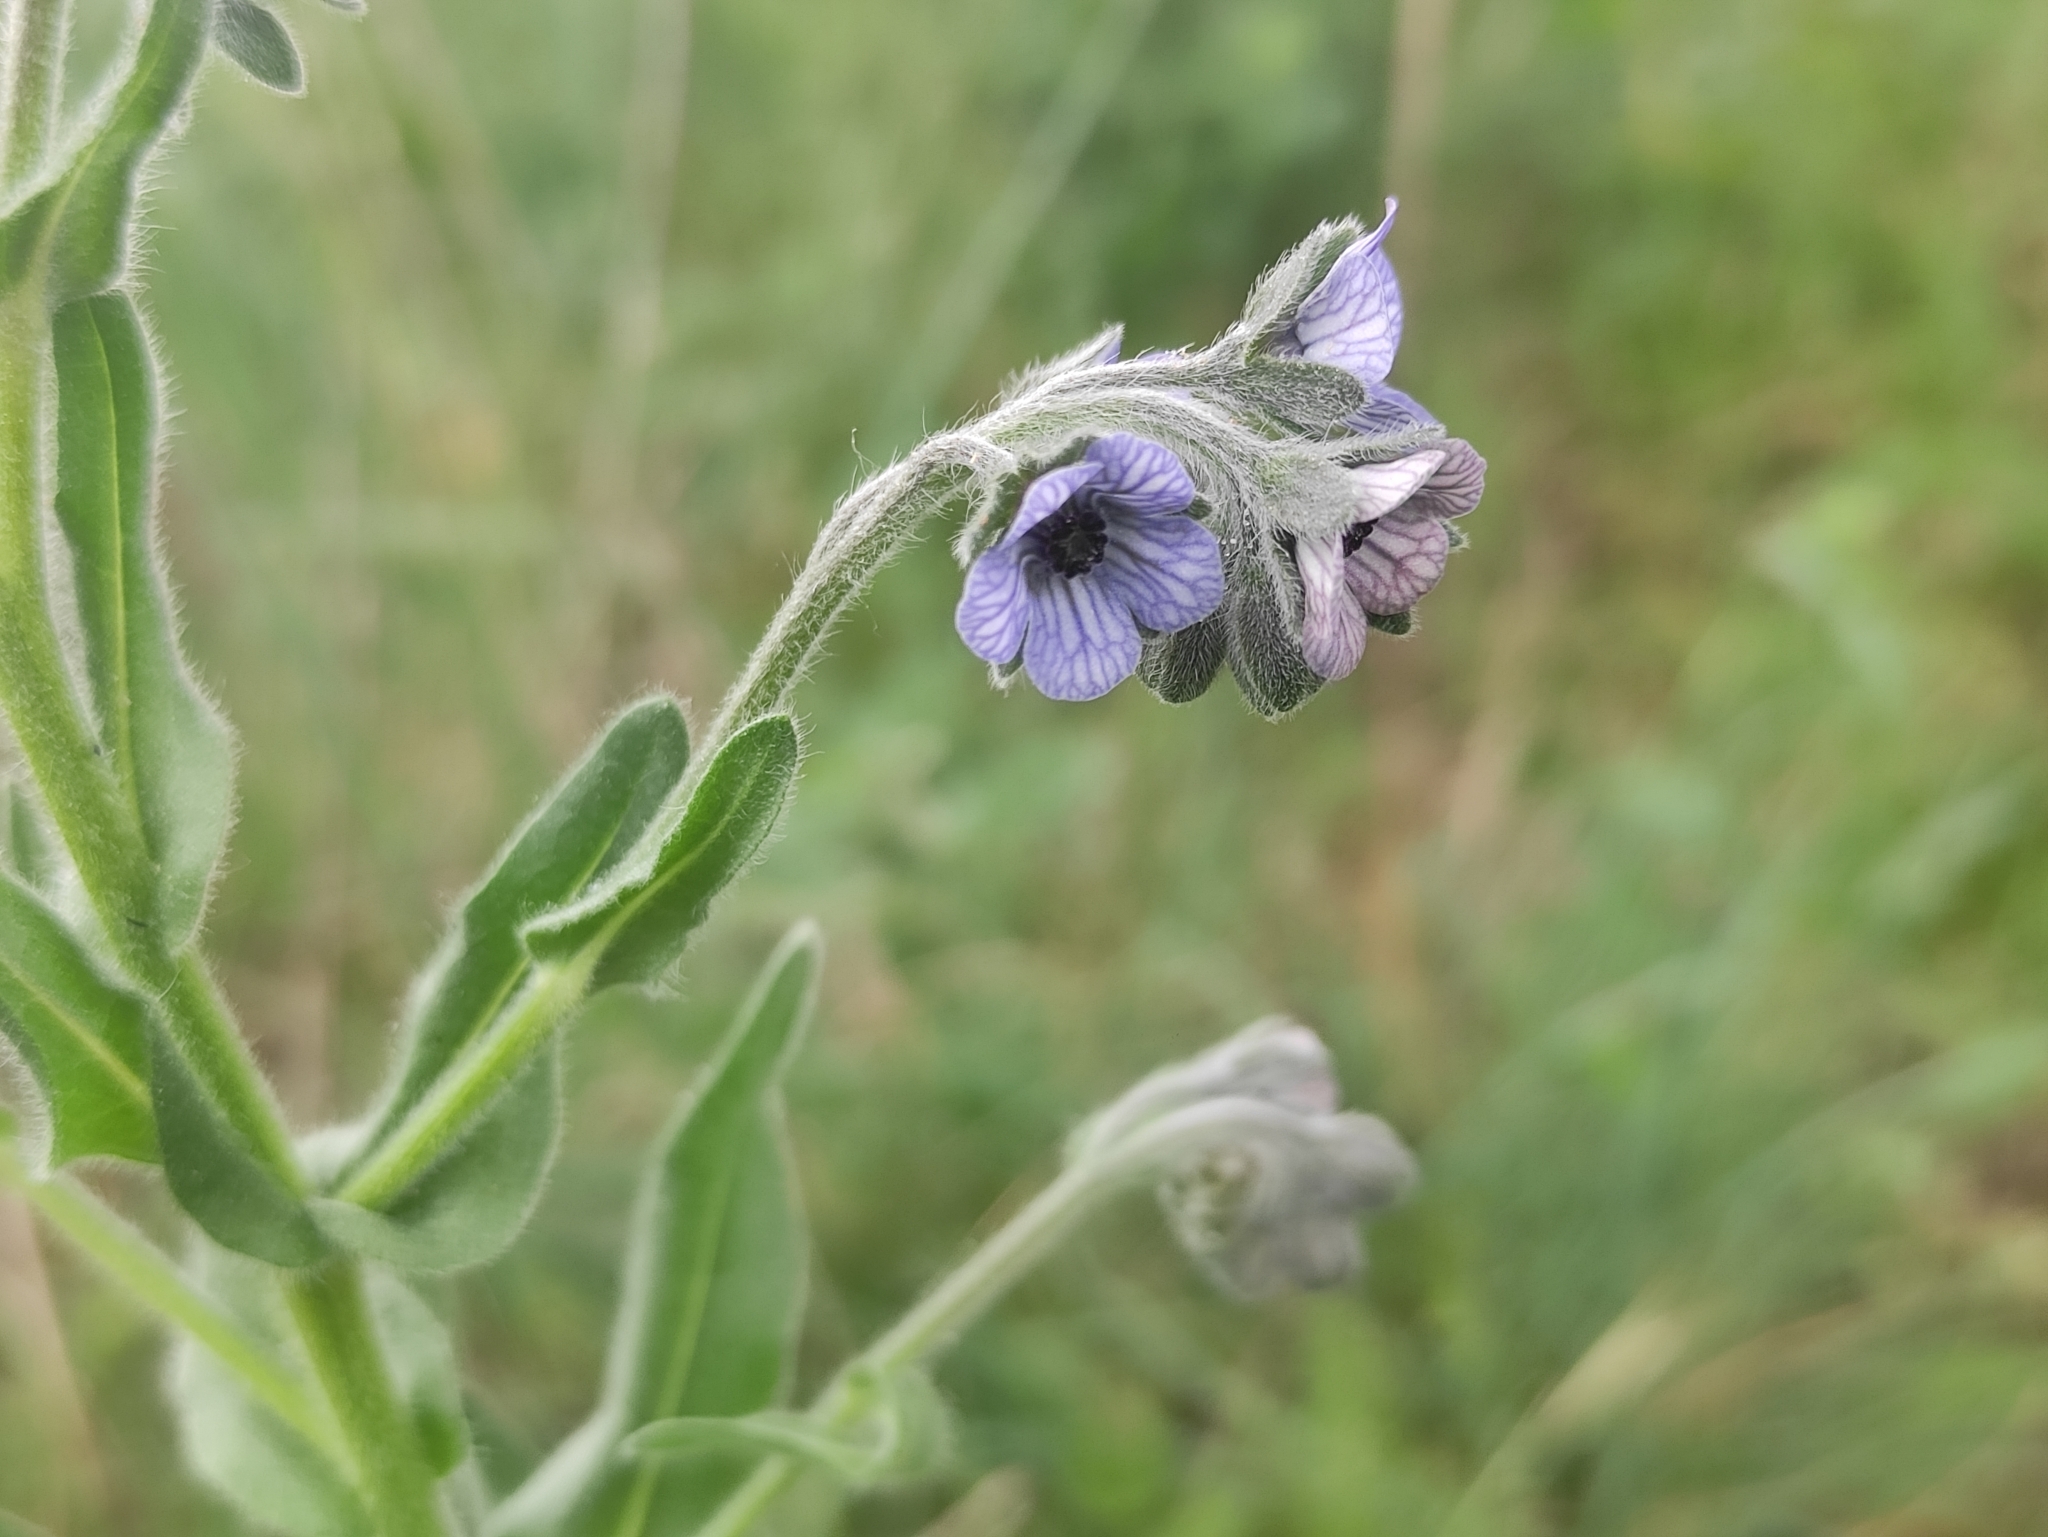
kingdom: Plantae
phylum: Tracheophyta
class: Magnoliopsida
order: Boraginales
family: Boraginaceae
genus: Cynoglossum
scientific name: Cynoglossum creticum
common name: Blue hound's tongue
